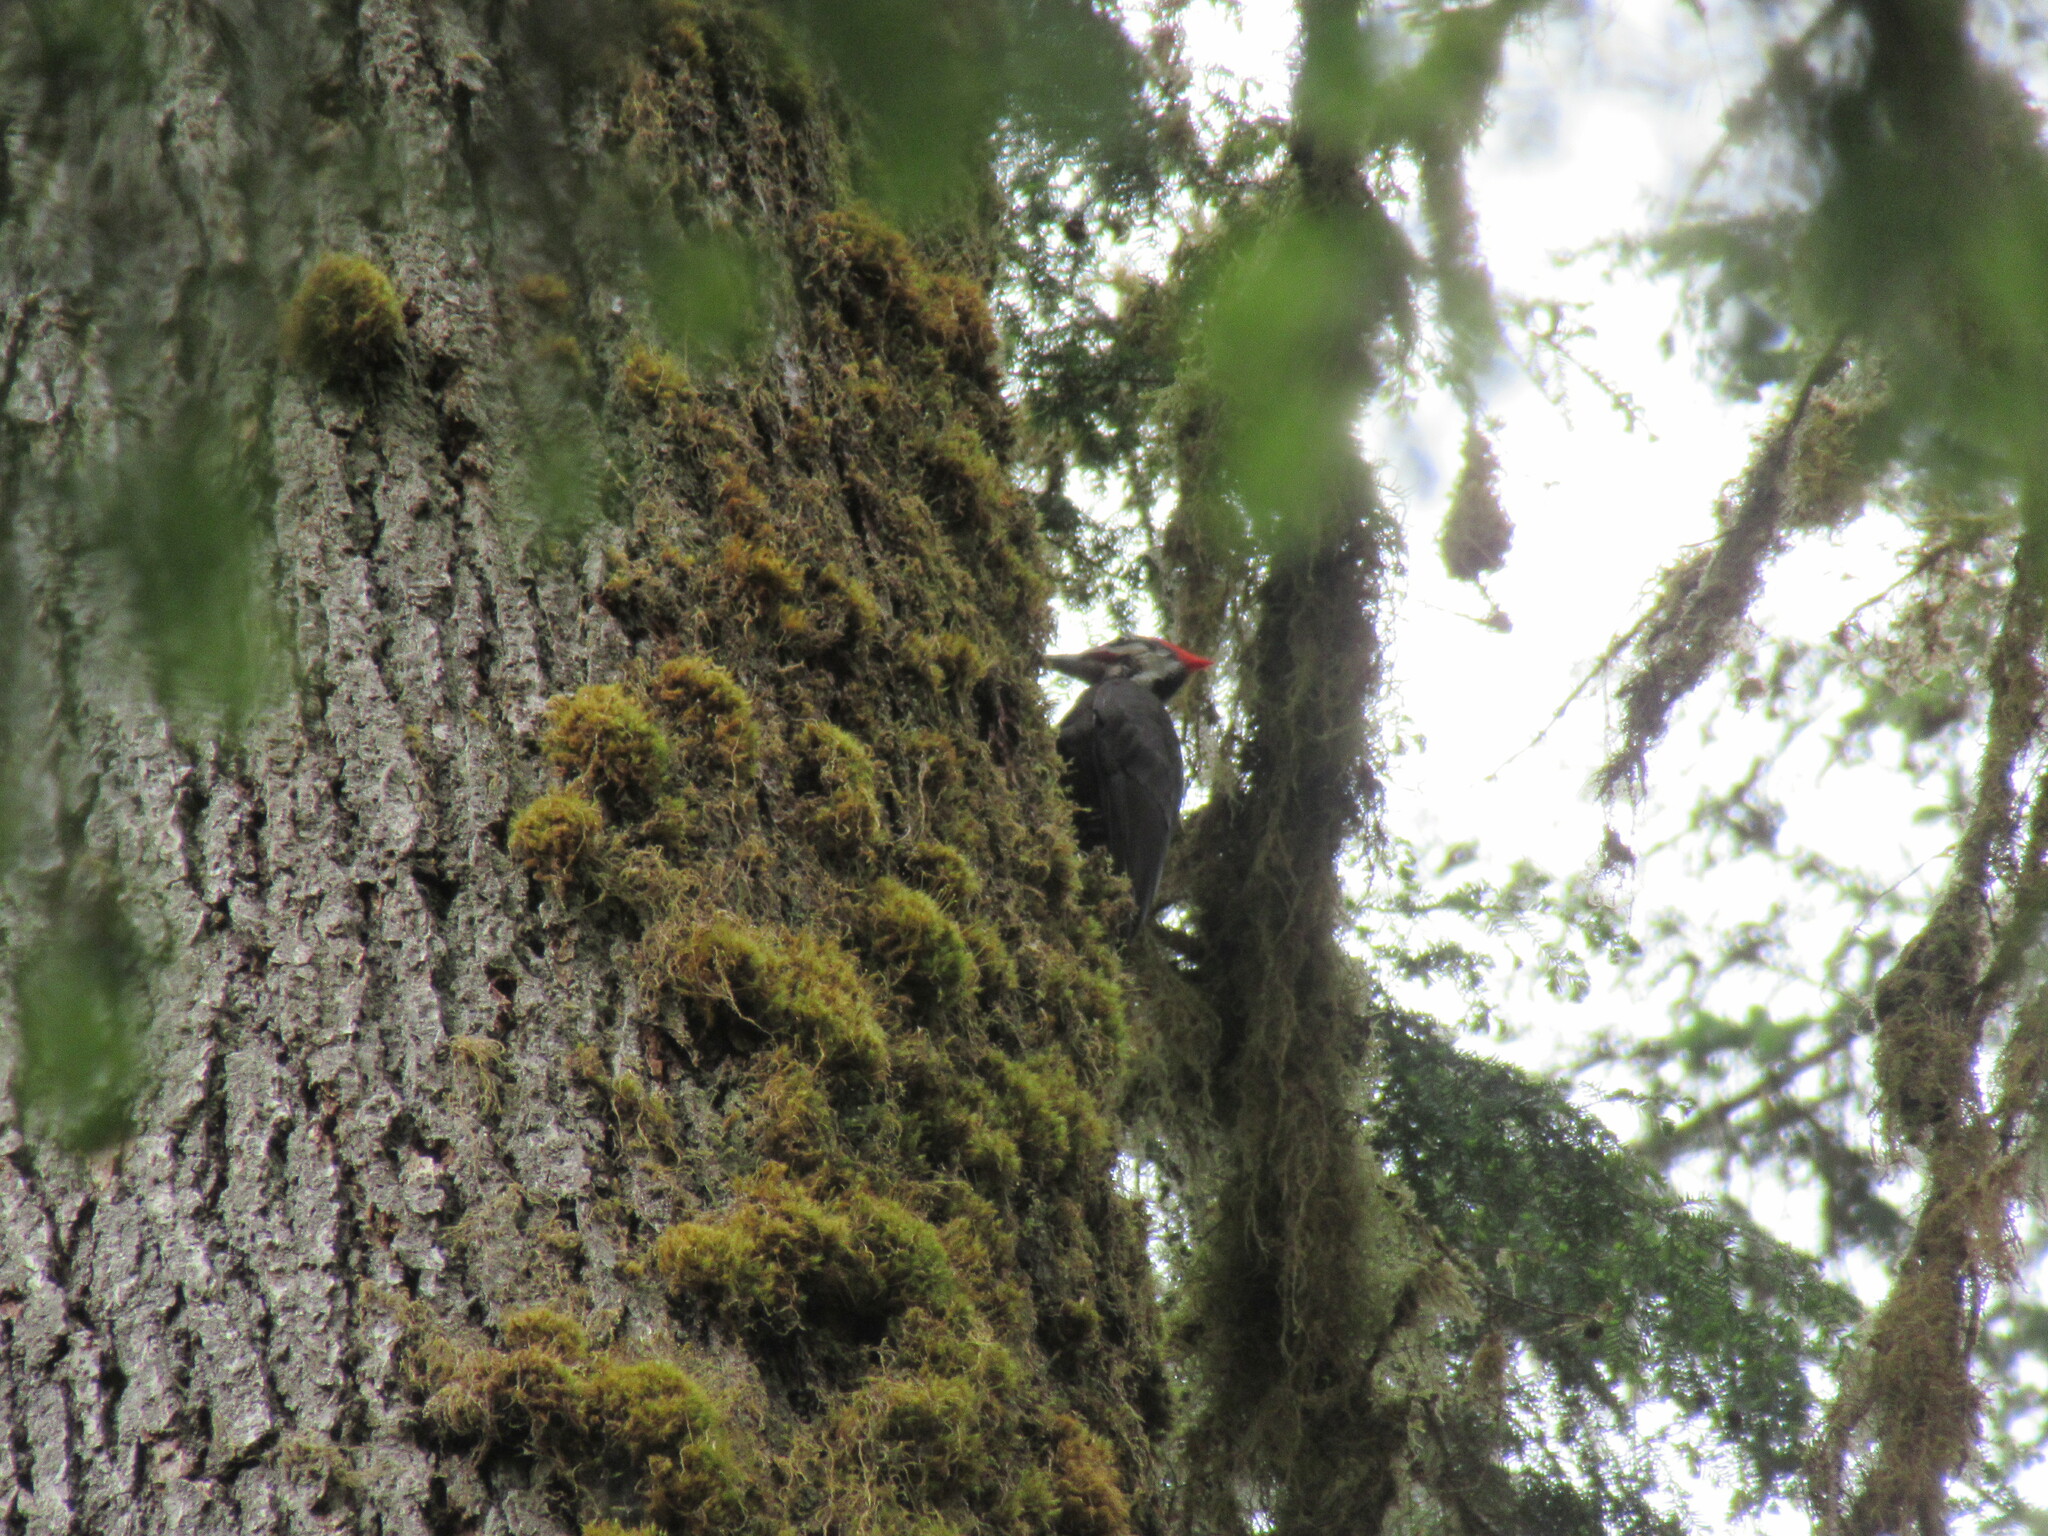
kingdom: Animalia
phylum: Chordata
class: Aves
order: Piciformes
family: Picidae
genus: Dryocopus
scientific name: Dryocopus pileatus
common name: Pileated woodpecker
